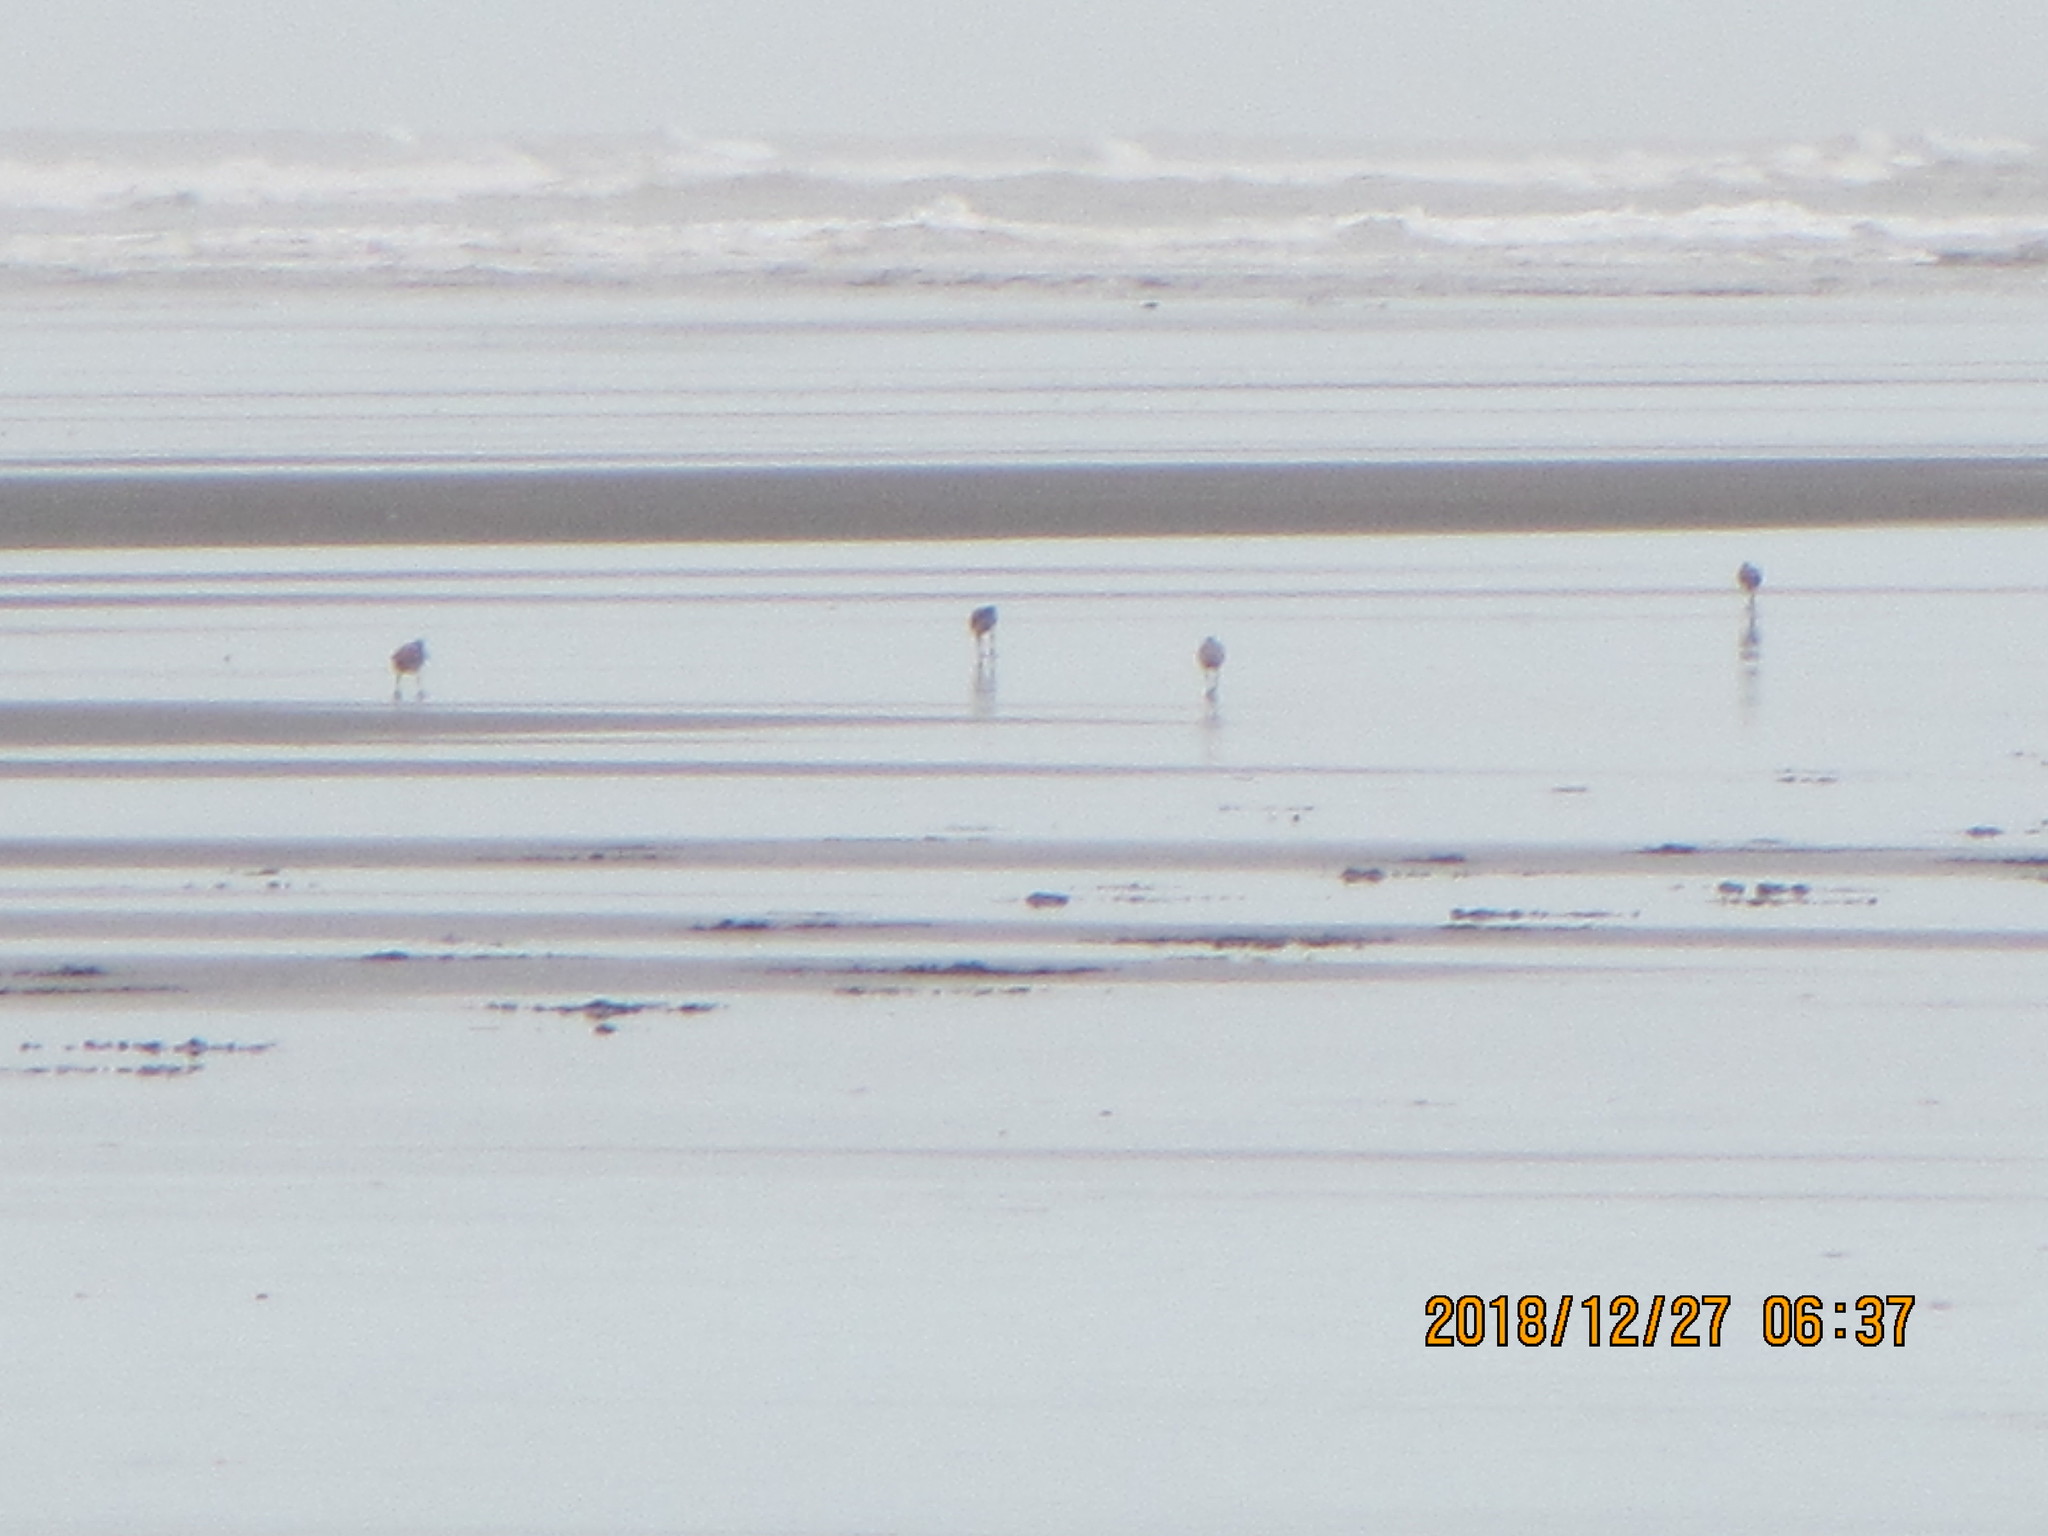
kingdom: Animalia
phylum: Chordata
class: Aves
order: Charadriiformes
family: Scolopacidae
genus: Limosa
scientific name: Limosa lapponica
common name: Bar-tailed godwit
